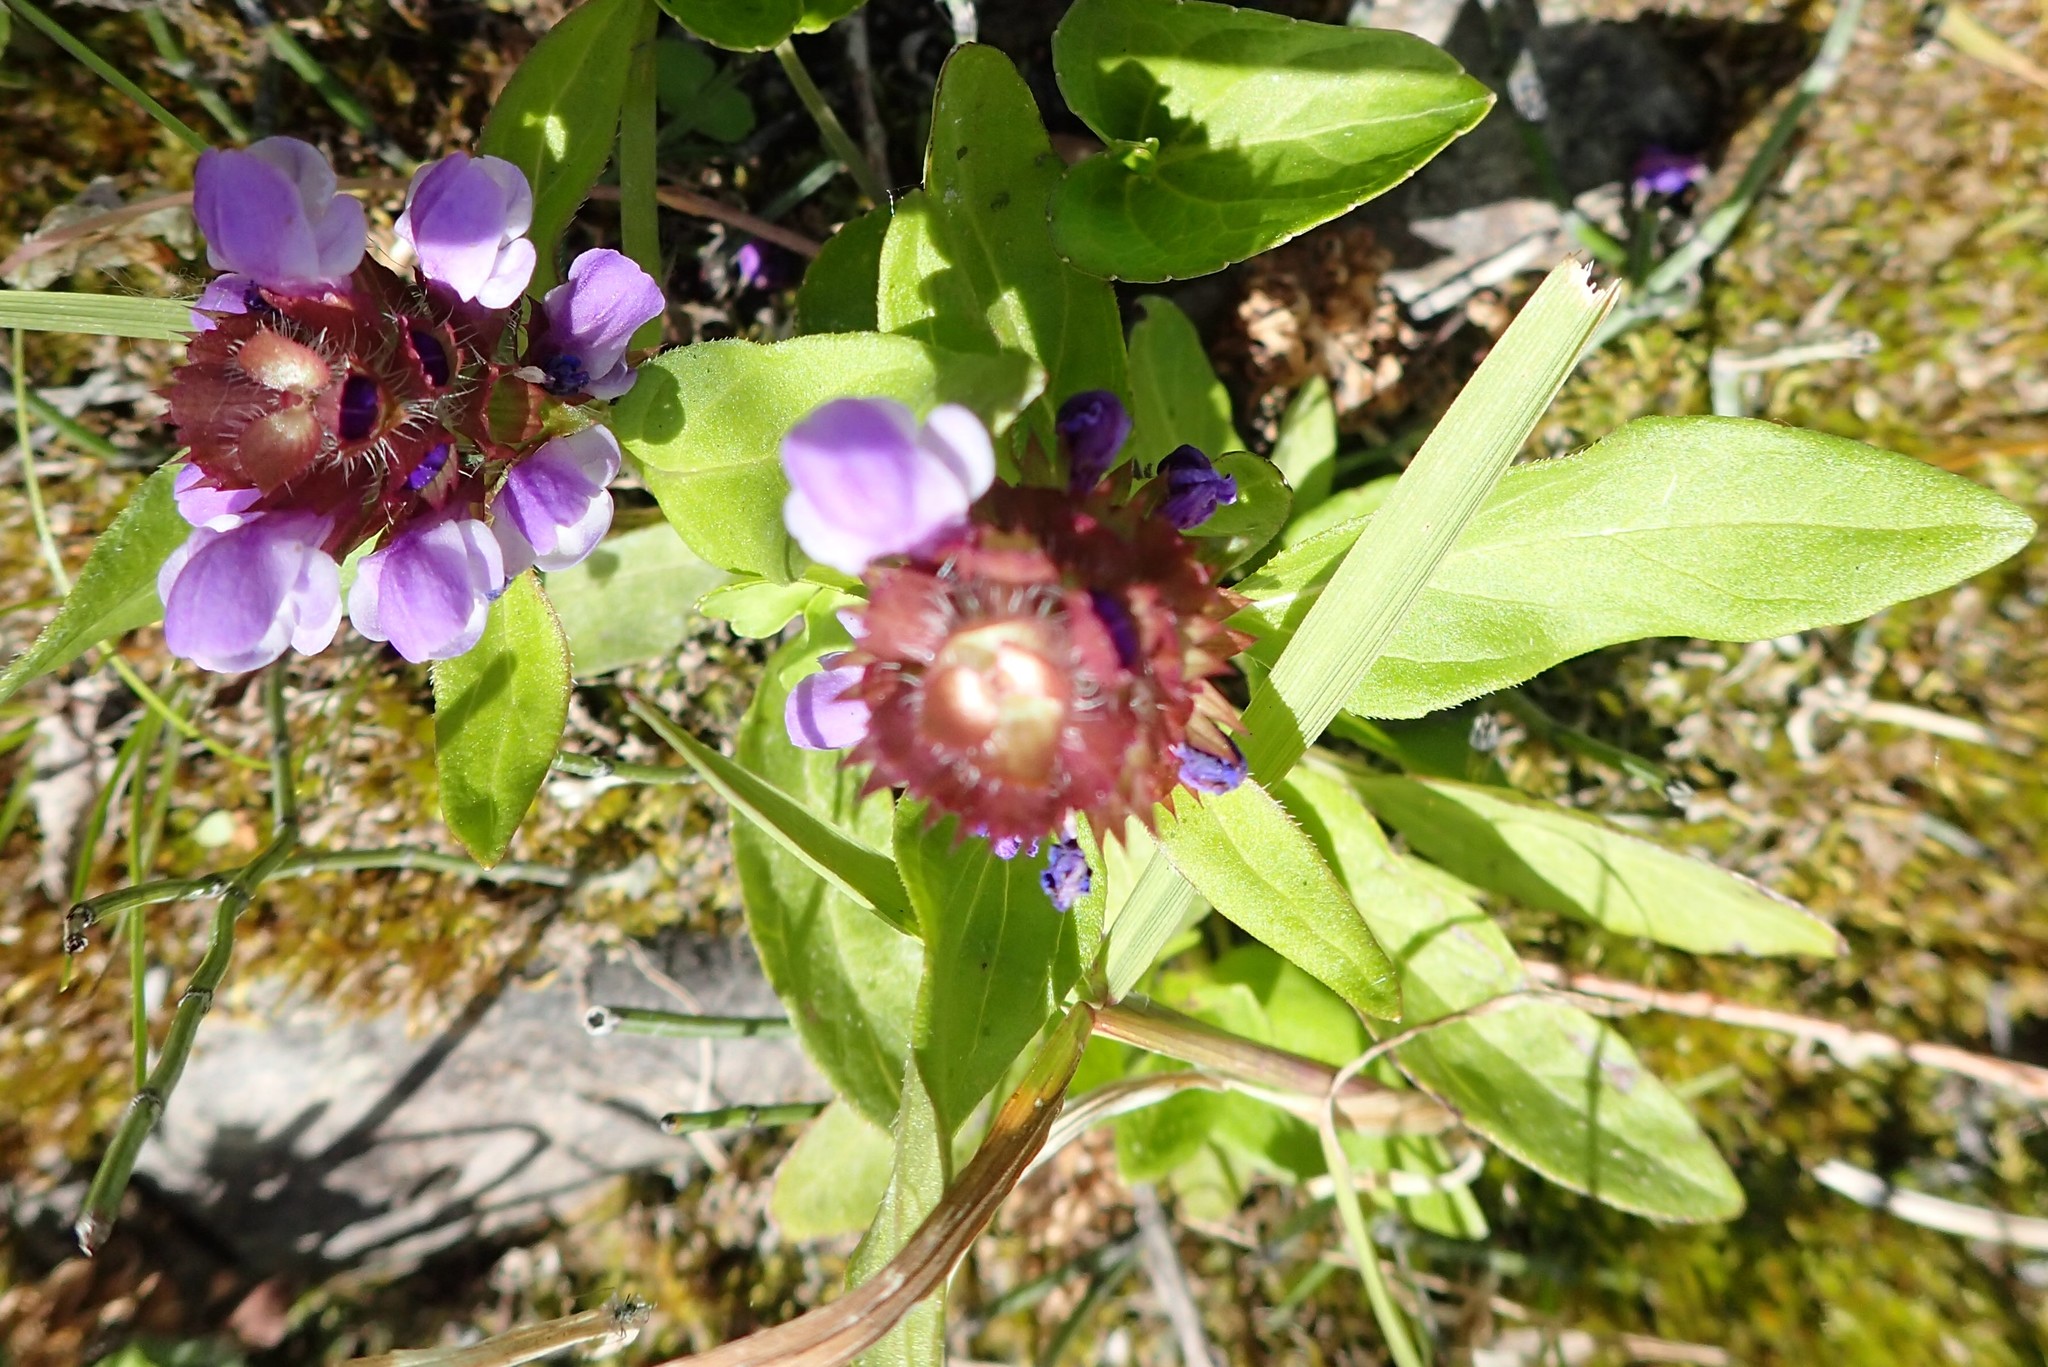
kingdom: Plantae
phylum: Tracheophyta
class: Magnoliopsida
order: Lamiales
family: Lamiaceae
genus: Prunella
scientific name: Prunella vulgaris
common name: Heal-all
